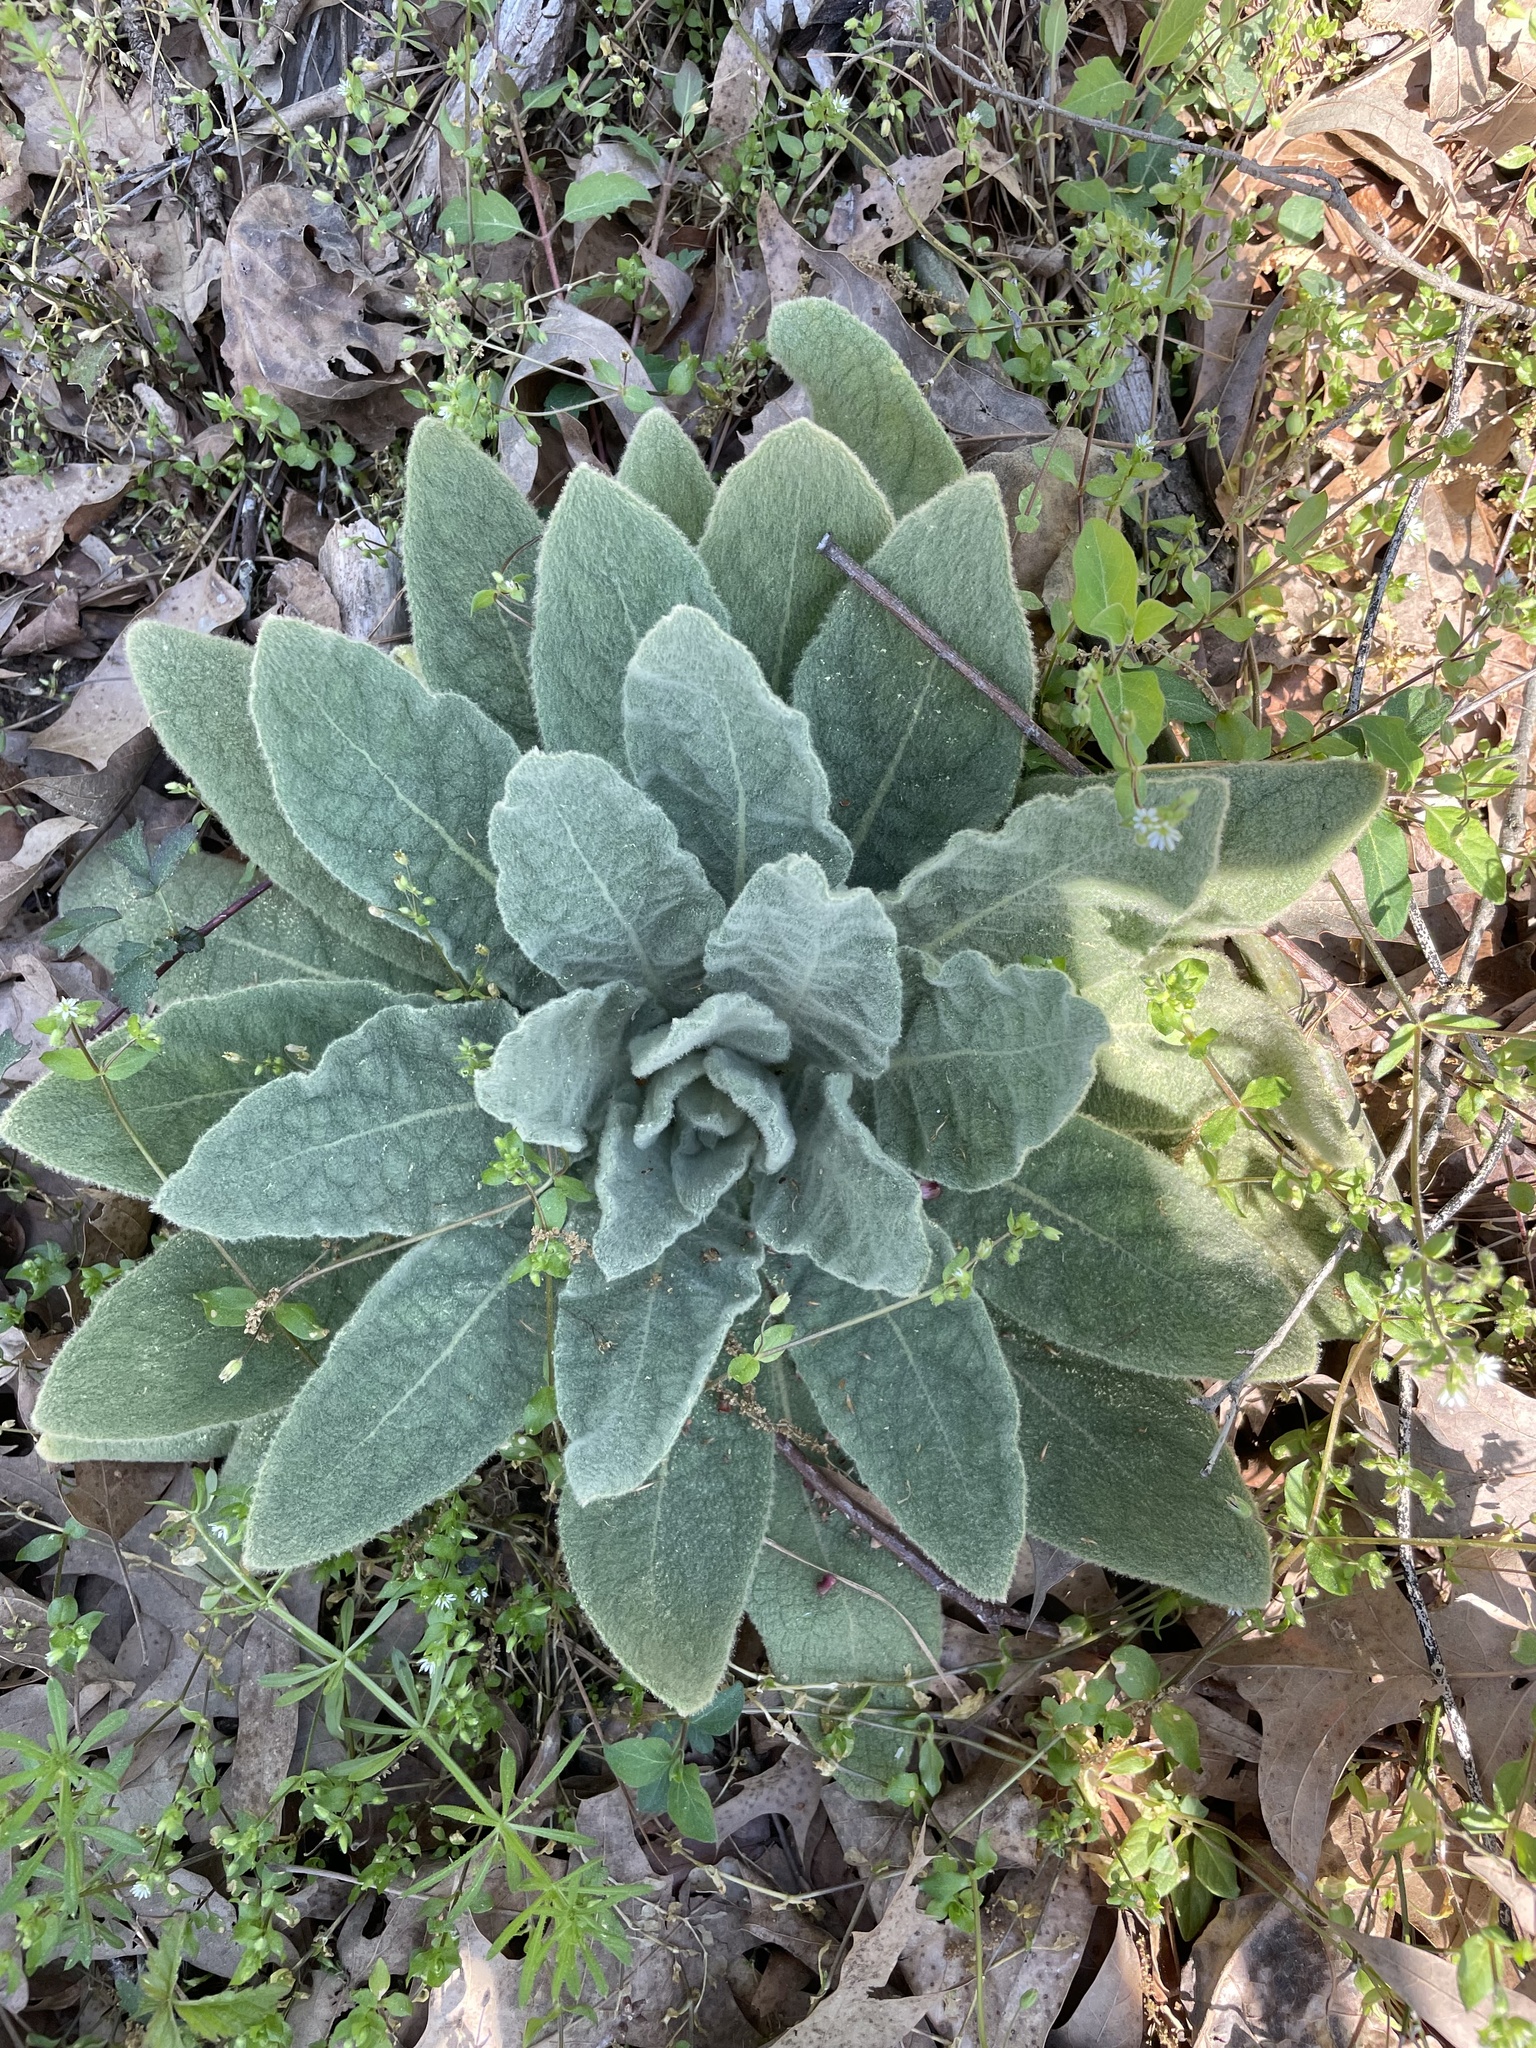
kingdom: Plantae
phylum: Tracheophyta
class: Magnoliopsida
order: Lamiales
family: Scrophulariaceae
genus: Verbascum
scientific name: Verbascum thapsus
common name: Common mullein
